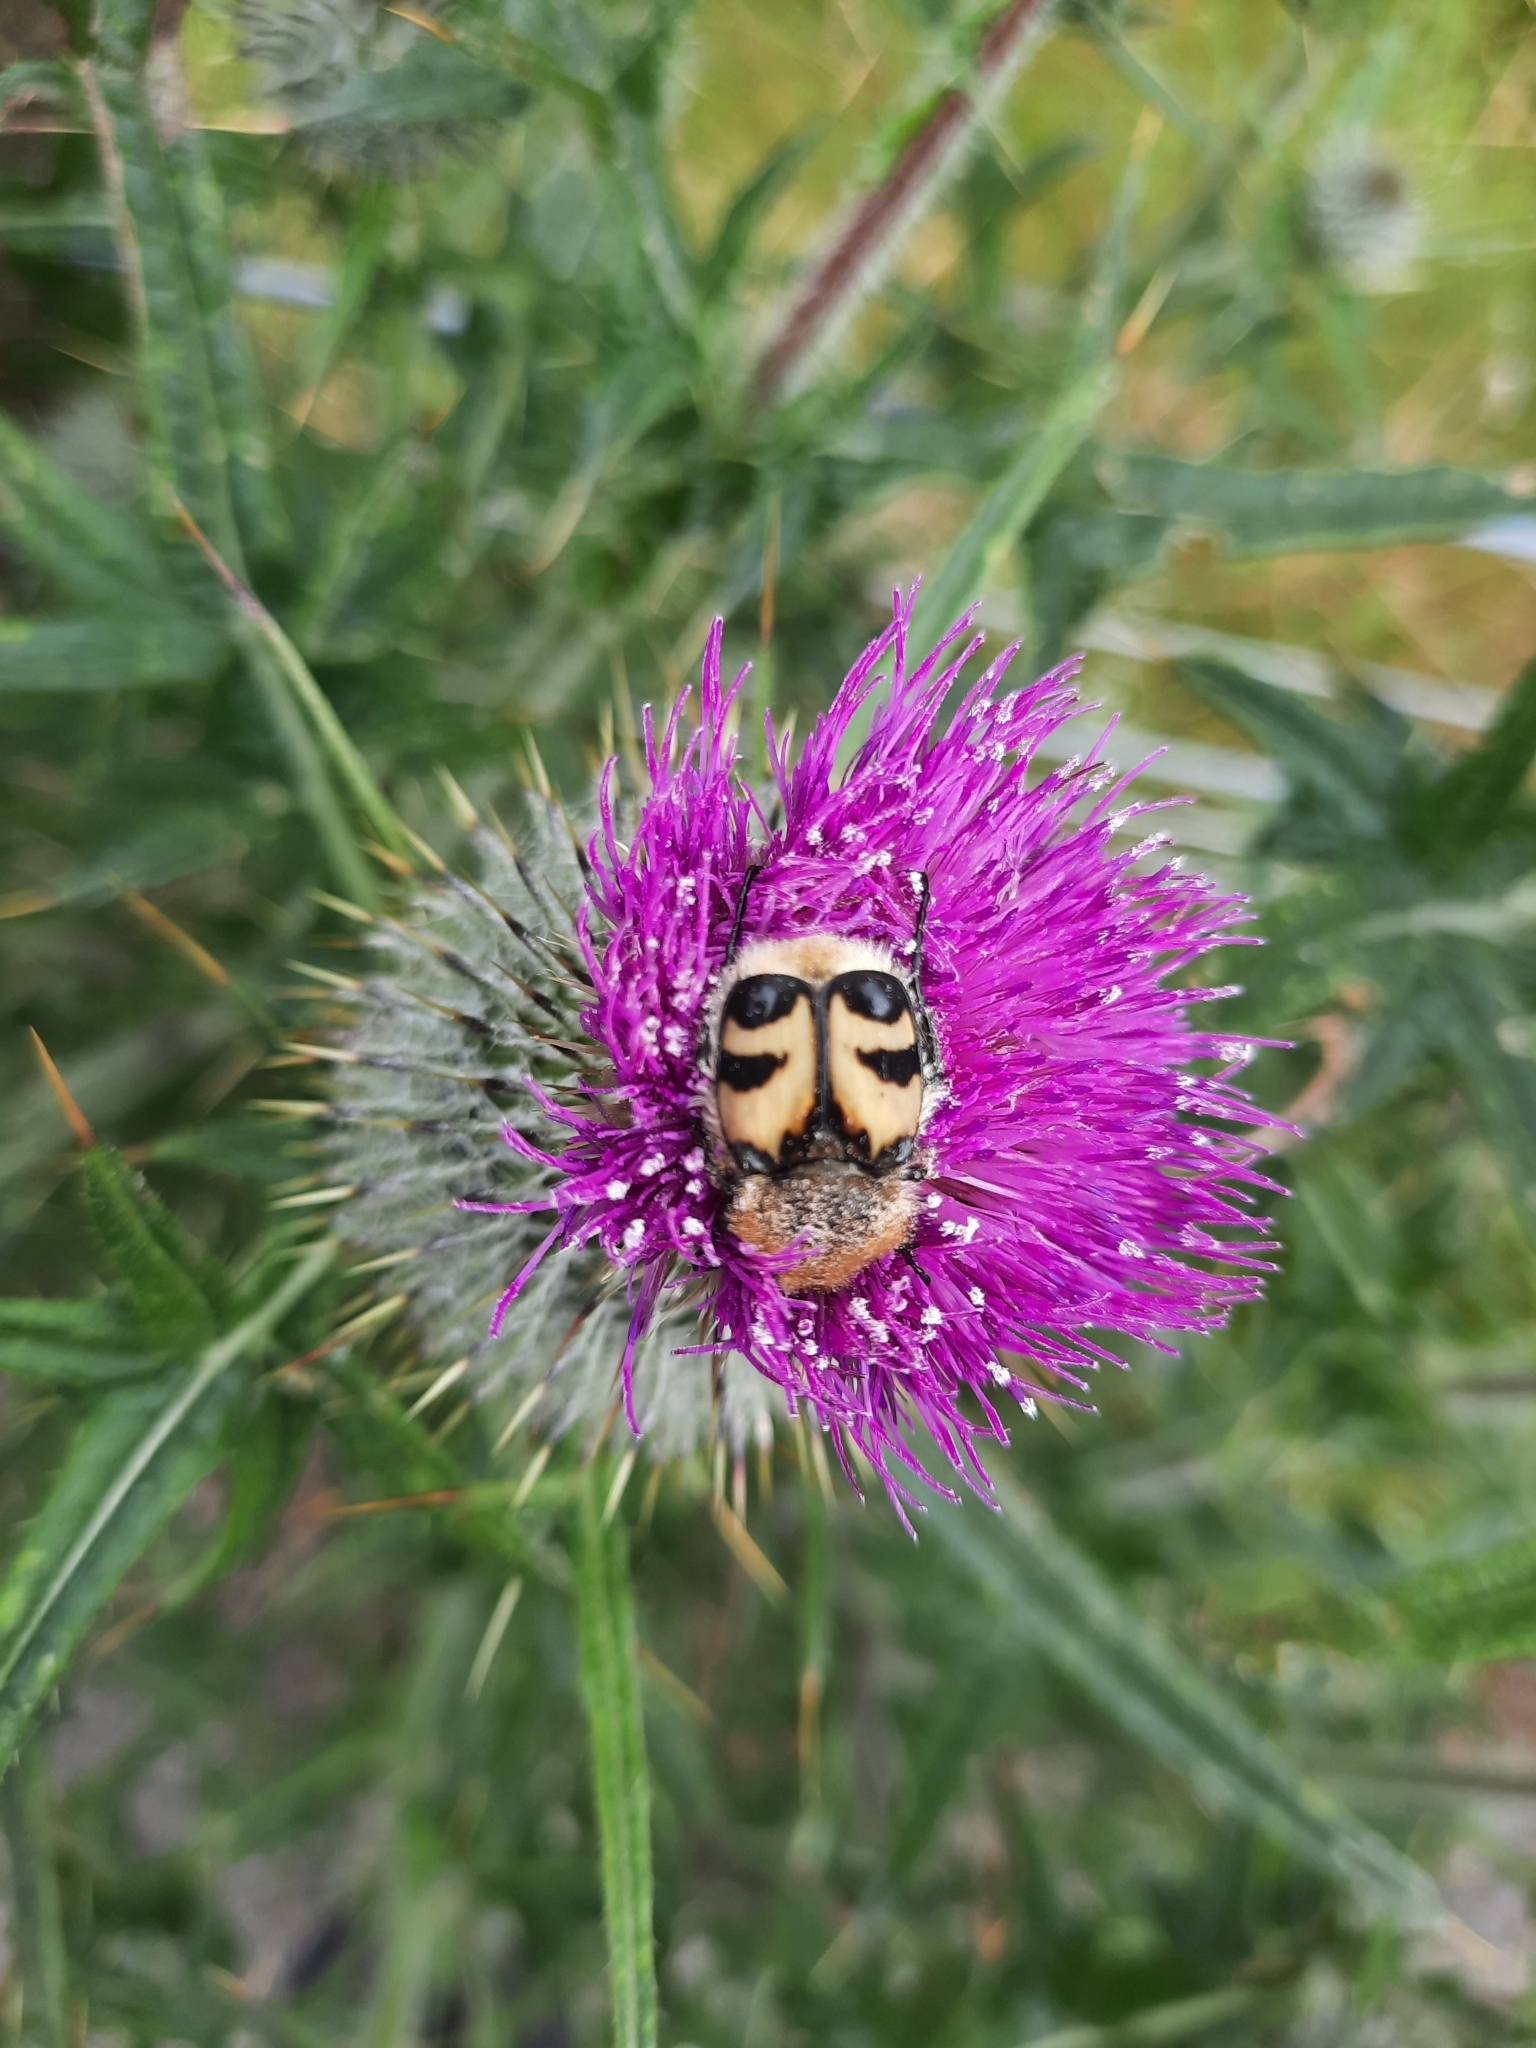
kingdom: Animalia
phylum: Arthropoda
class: Insecta
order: Coleoptera
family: Scarabaeidae
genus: Trichius
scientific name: Trichius fasciatus
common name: Bee beetle
